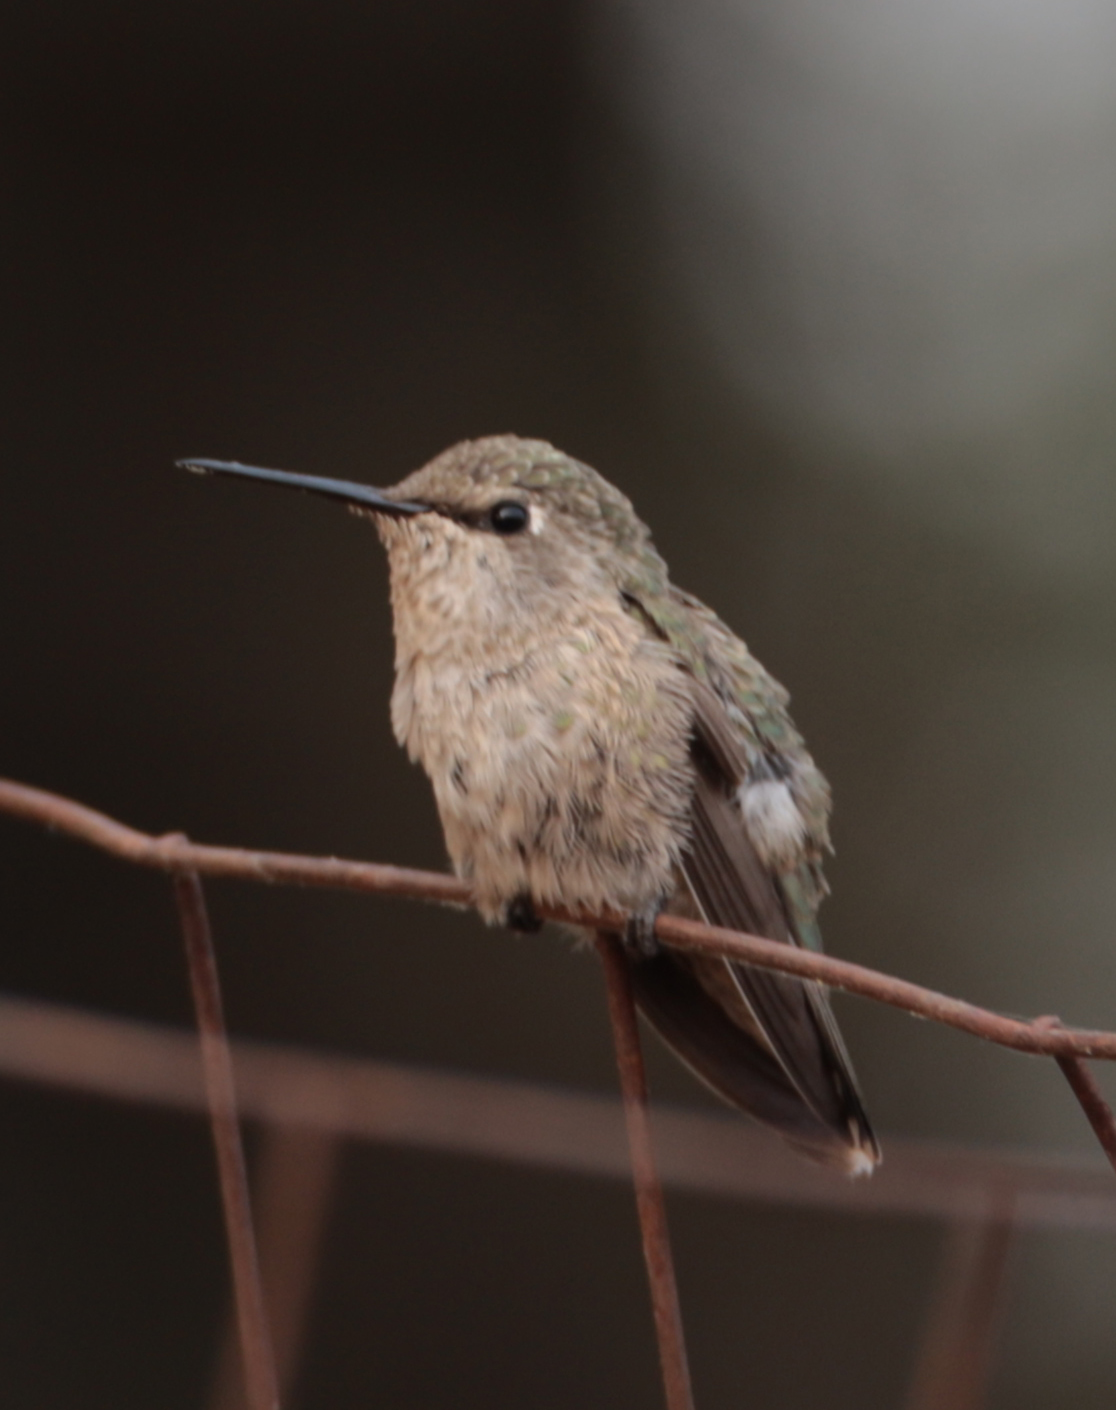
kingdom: Animalia
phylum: Chordata
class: Aves
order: Apodiformes
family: Trochilidae
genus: Calypte
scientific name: Calypte anna
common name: Anna's hummingbird
